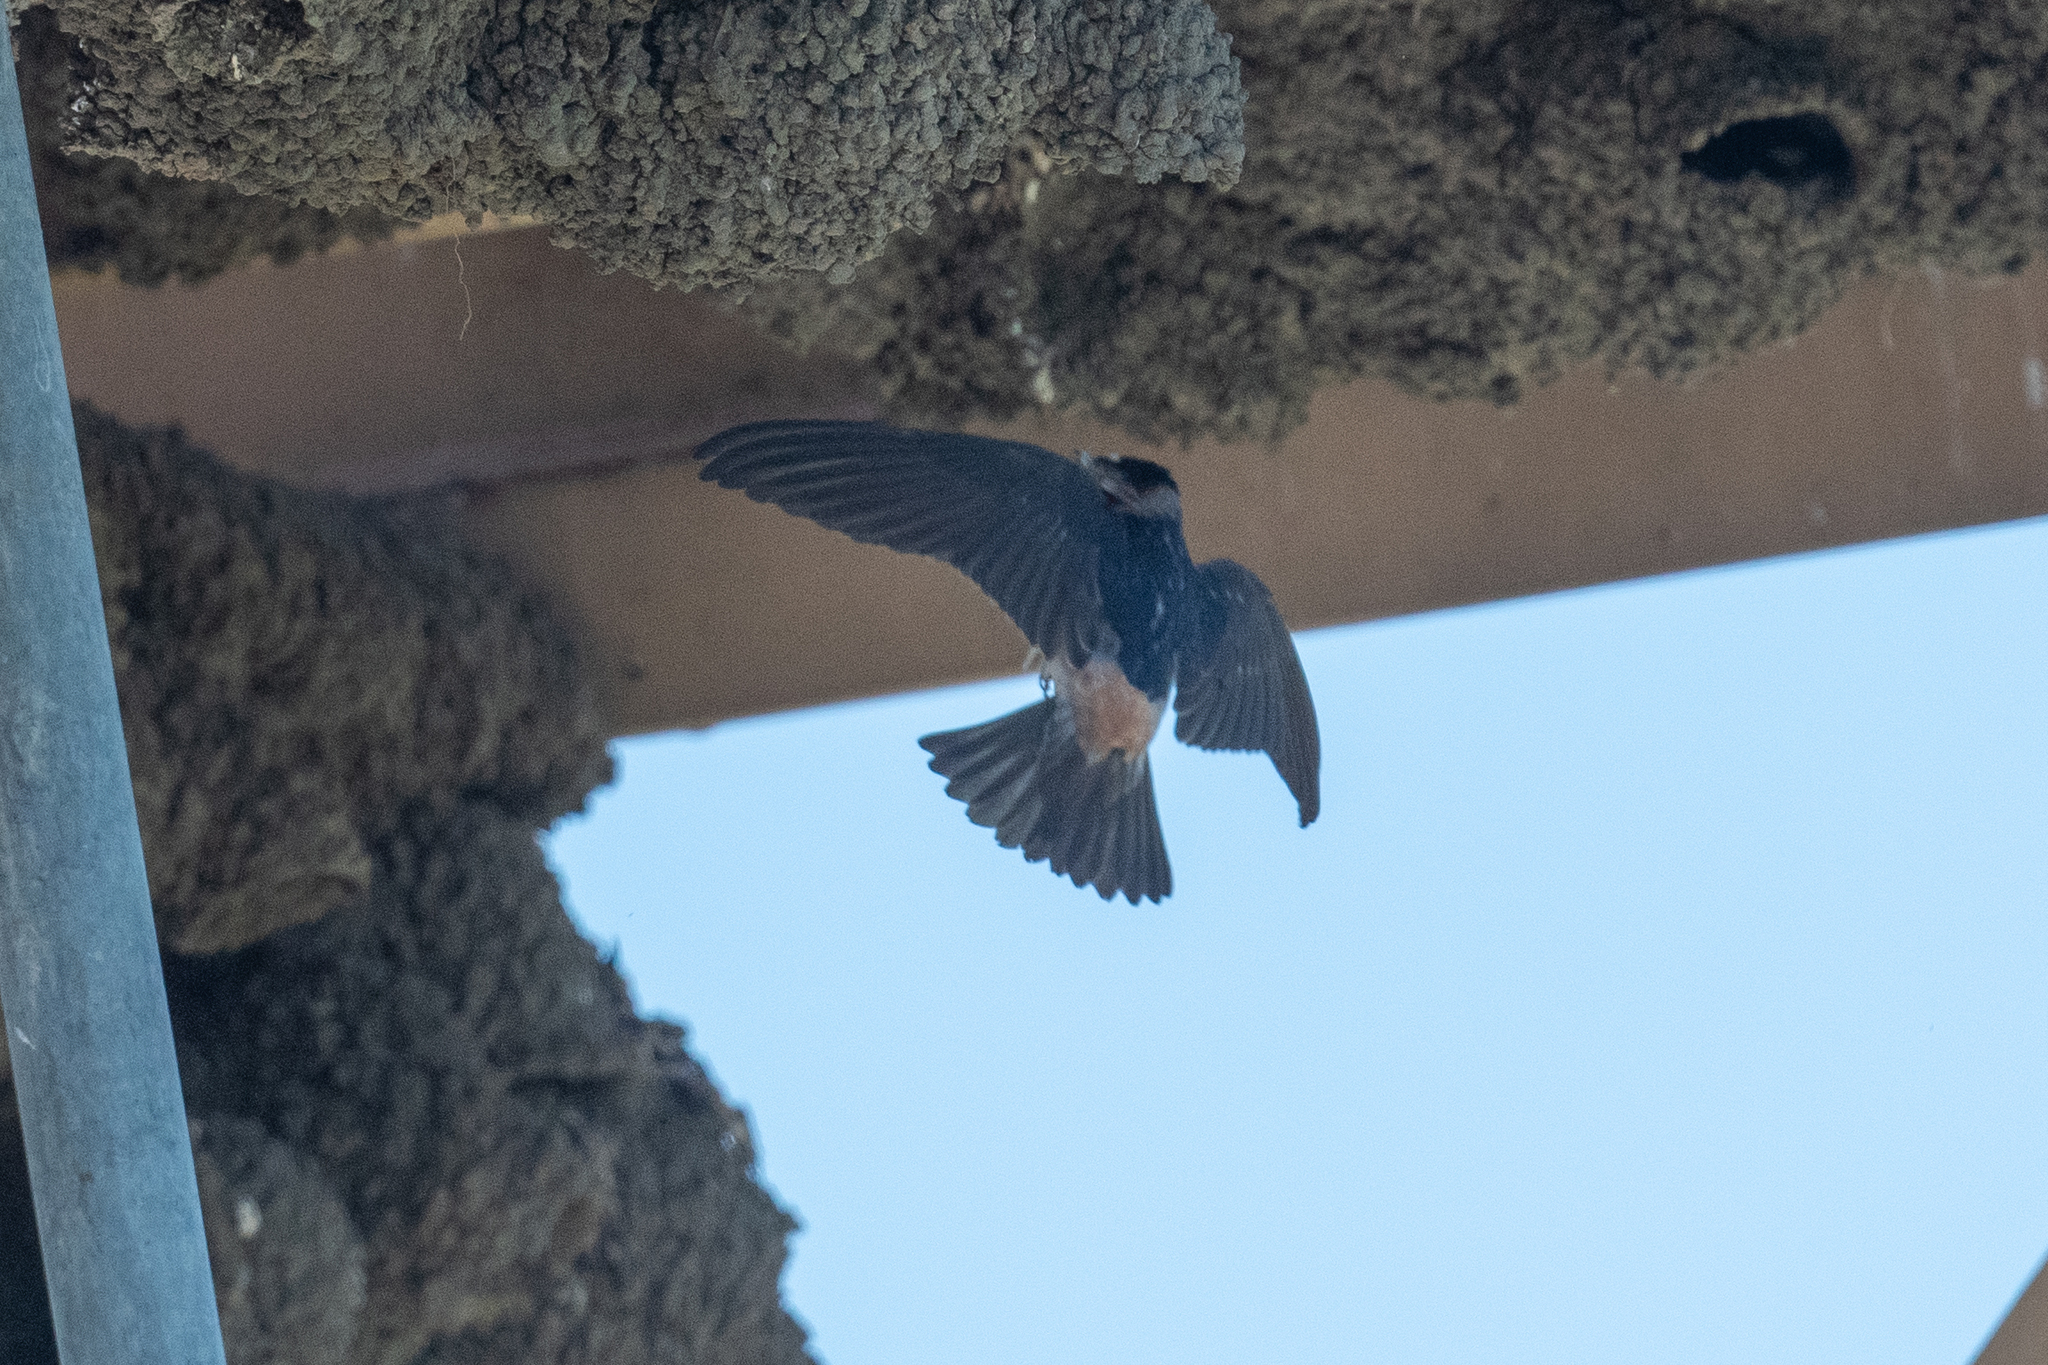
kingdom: Animalia
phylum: Chordata
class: Aves
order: Passeriformes
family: Hirundinidae
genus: Petrochelidon
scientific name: Petrochelidon pyrrhonota
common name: American cliff swallow
